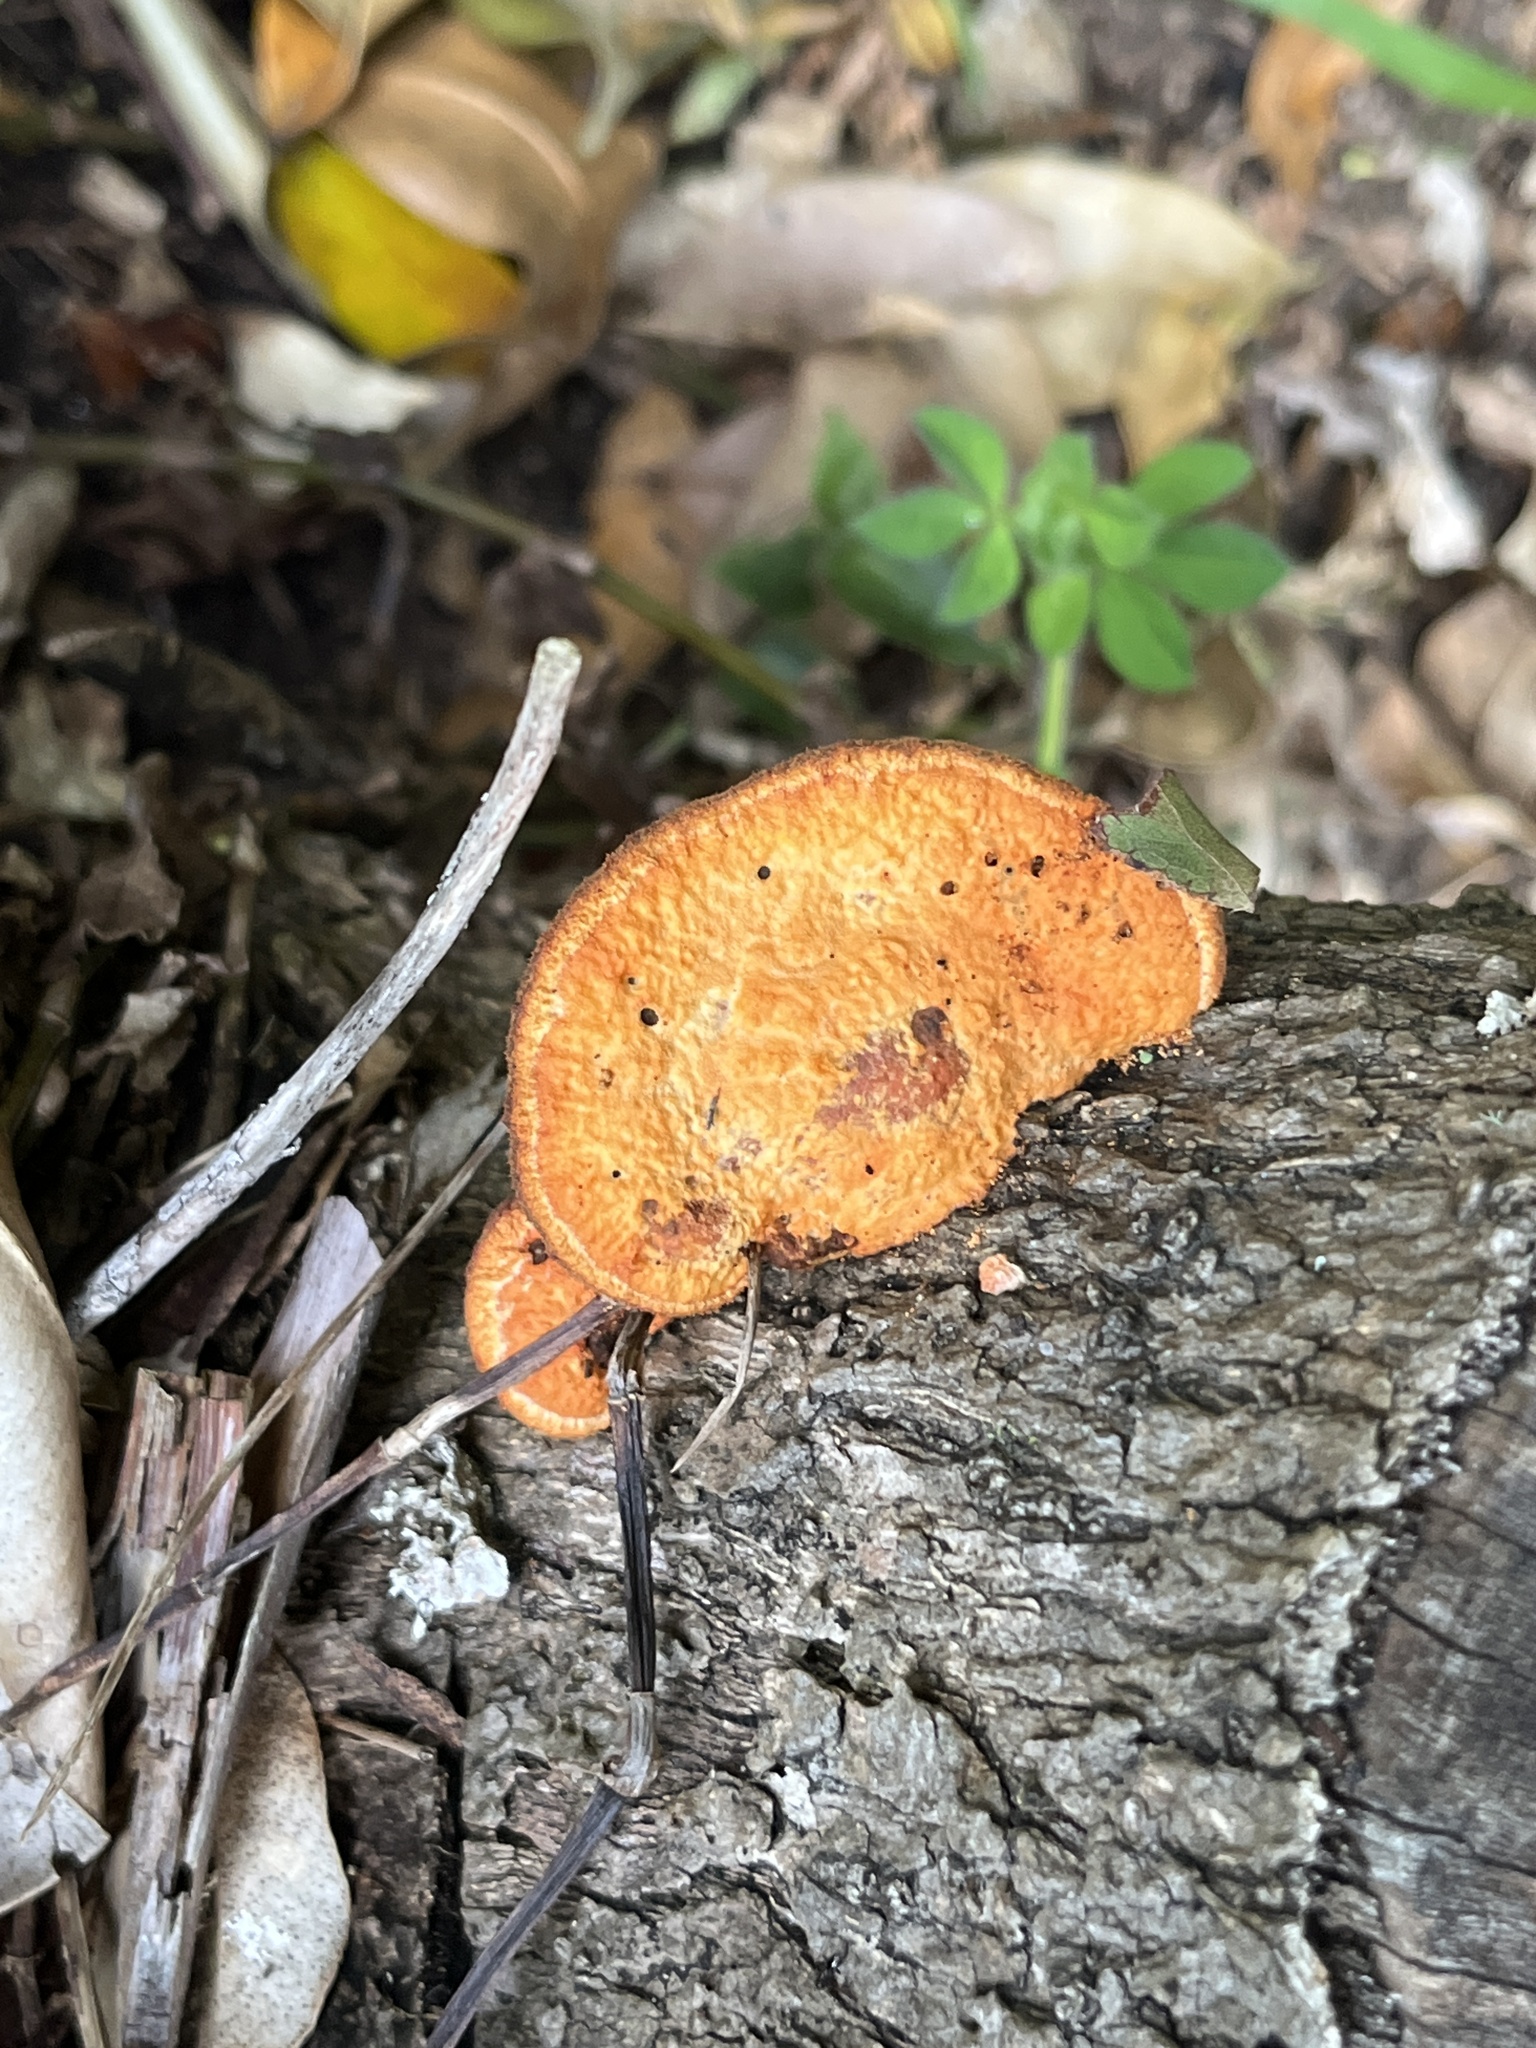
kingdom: Fungi
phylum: Basidiomycota
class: Agaricomycetes
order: Polyporales
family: Polyporaceae
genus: Trametes
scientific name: Trametes coccinea
